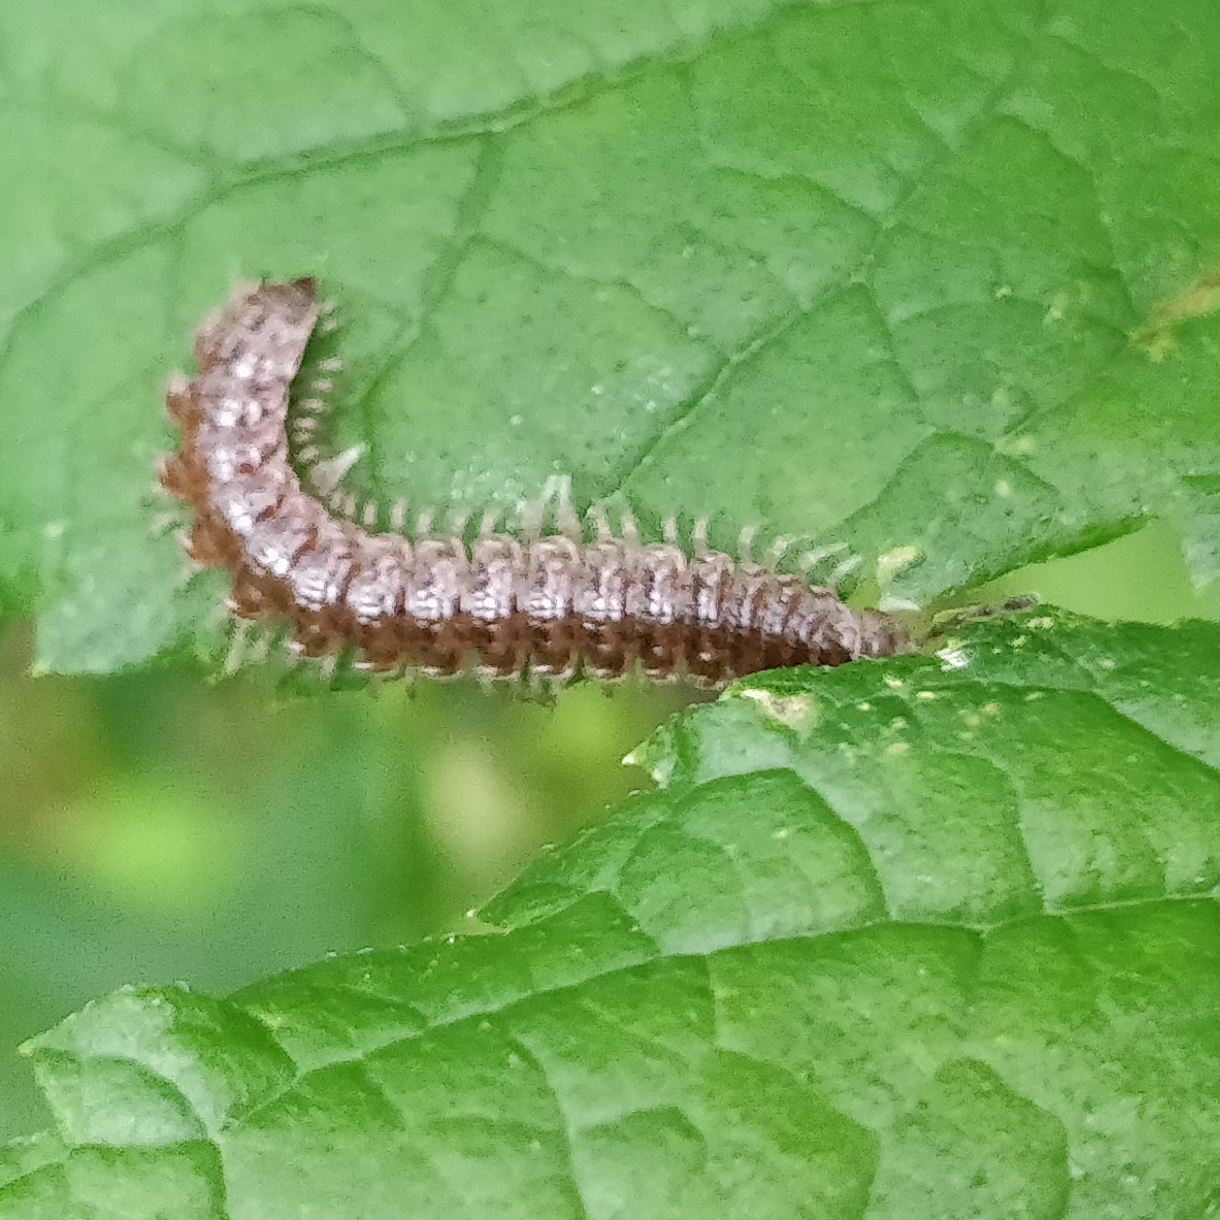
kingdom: Animalia
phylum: Arthropoda
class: Diplopoda
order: Polydesmida
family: Polydesmidae
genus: Pseudopolydesmus
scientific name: Pseudopolydesmus serratus
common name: Common pink flat-back millipede
